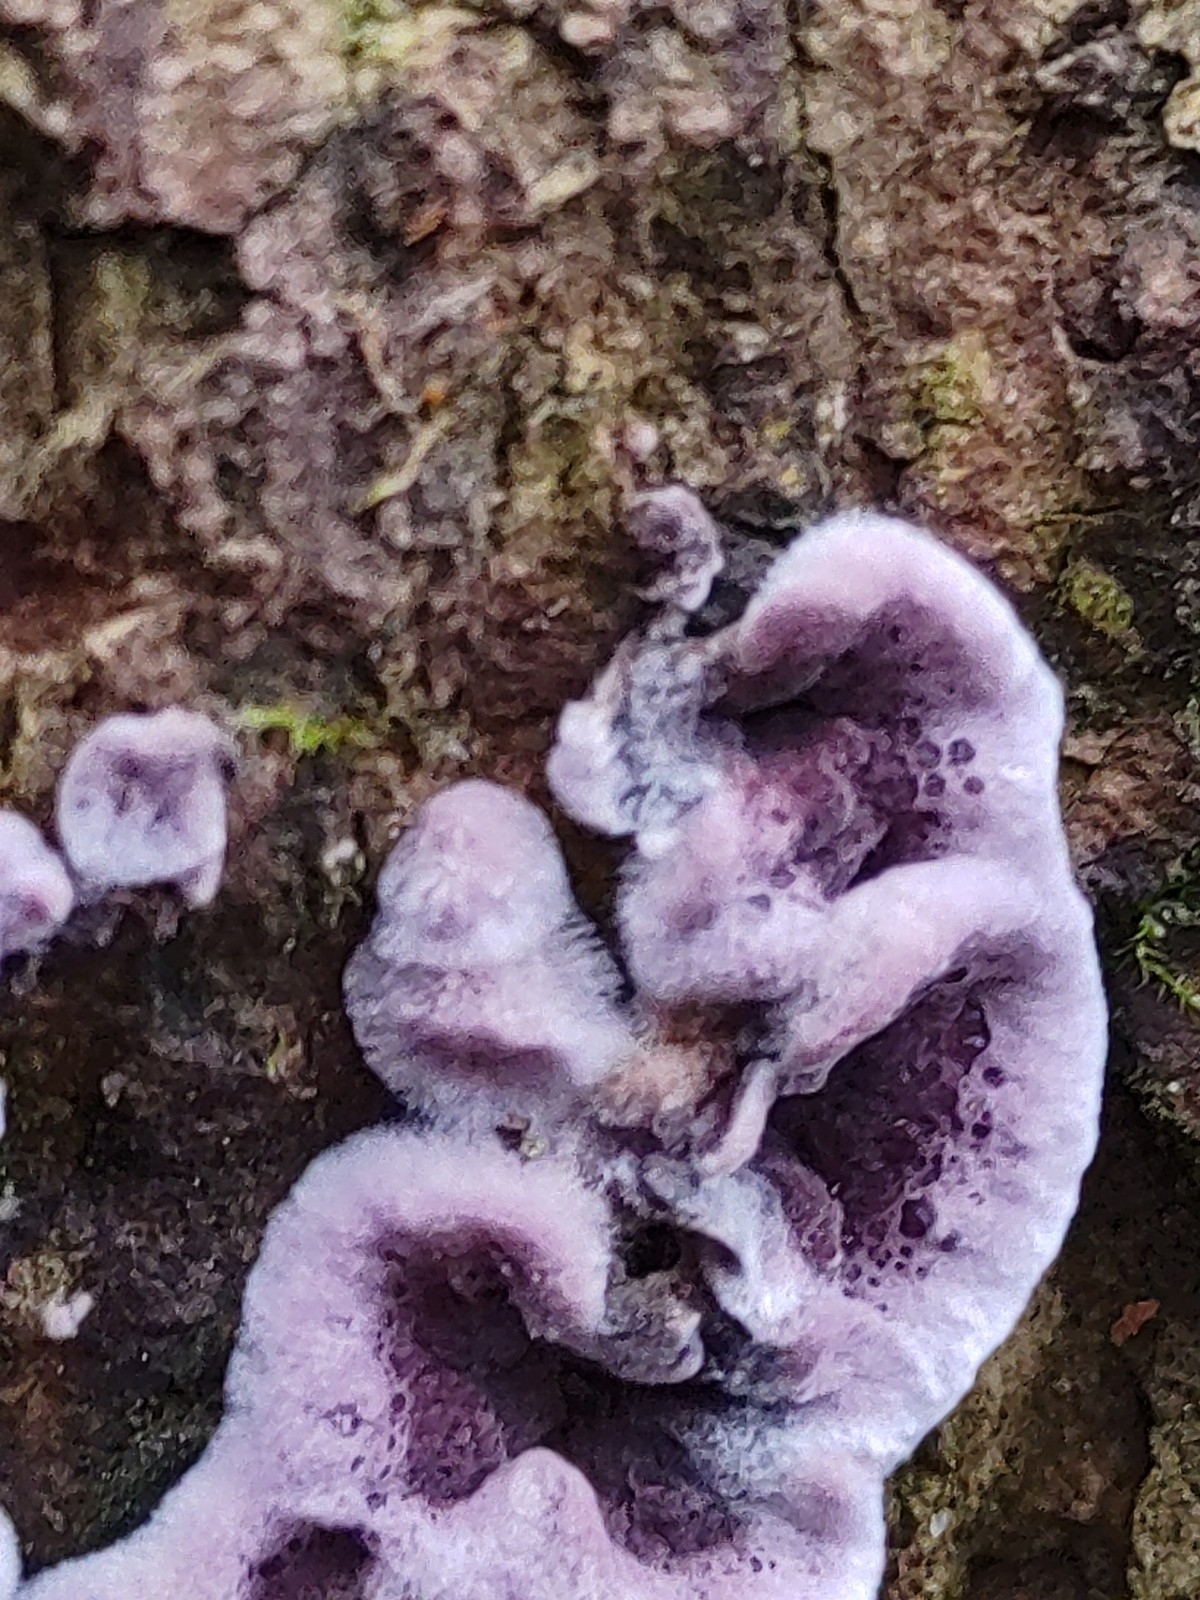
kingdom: Fungi
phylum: Basidiomycota
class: Agaricomycetes
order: Agaricales
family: Cyphellaceae
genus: Chondrostereum
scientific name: Chondrostereum purpureum
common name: Silver leaf disease
